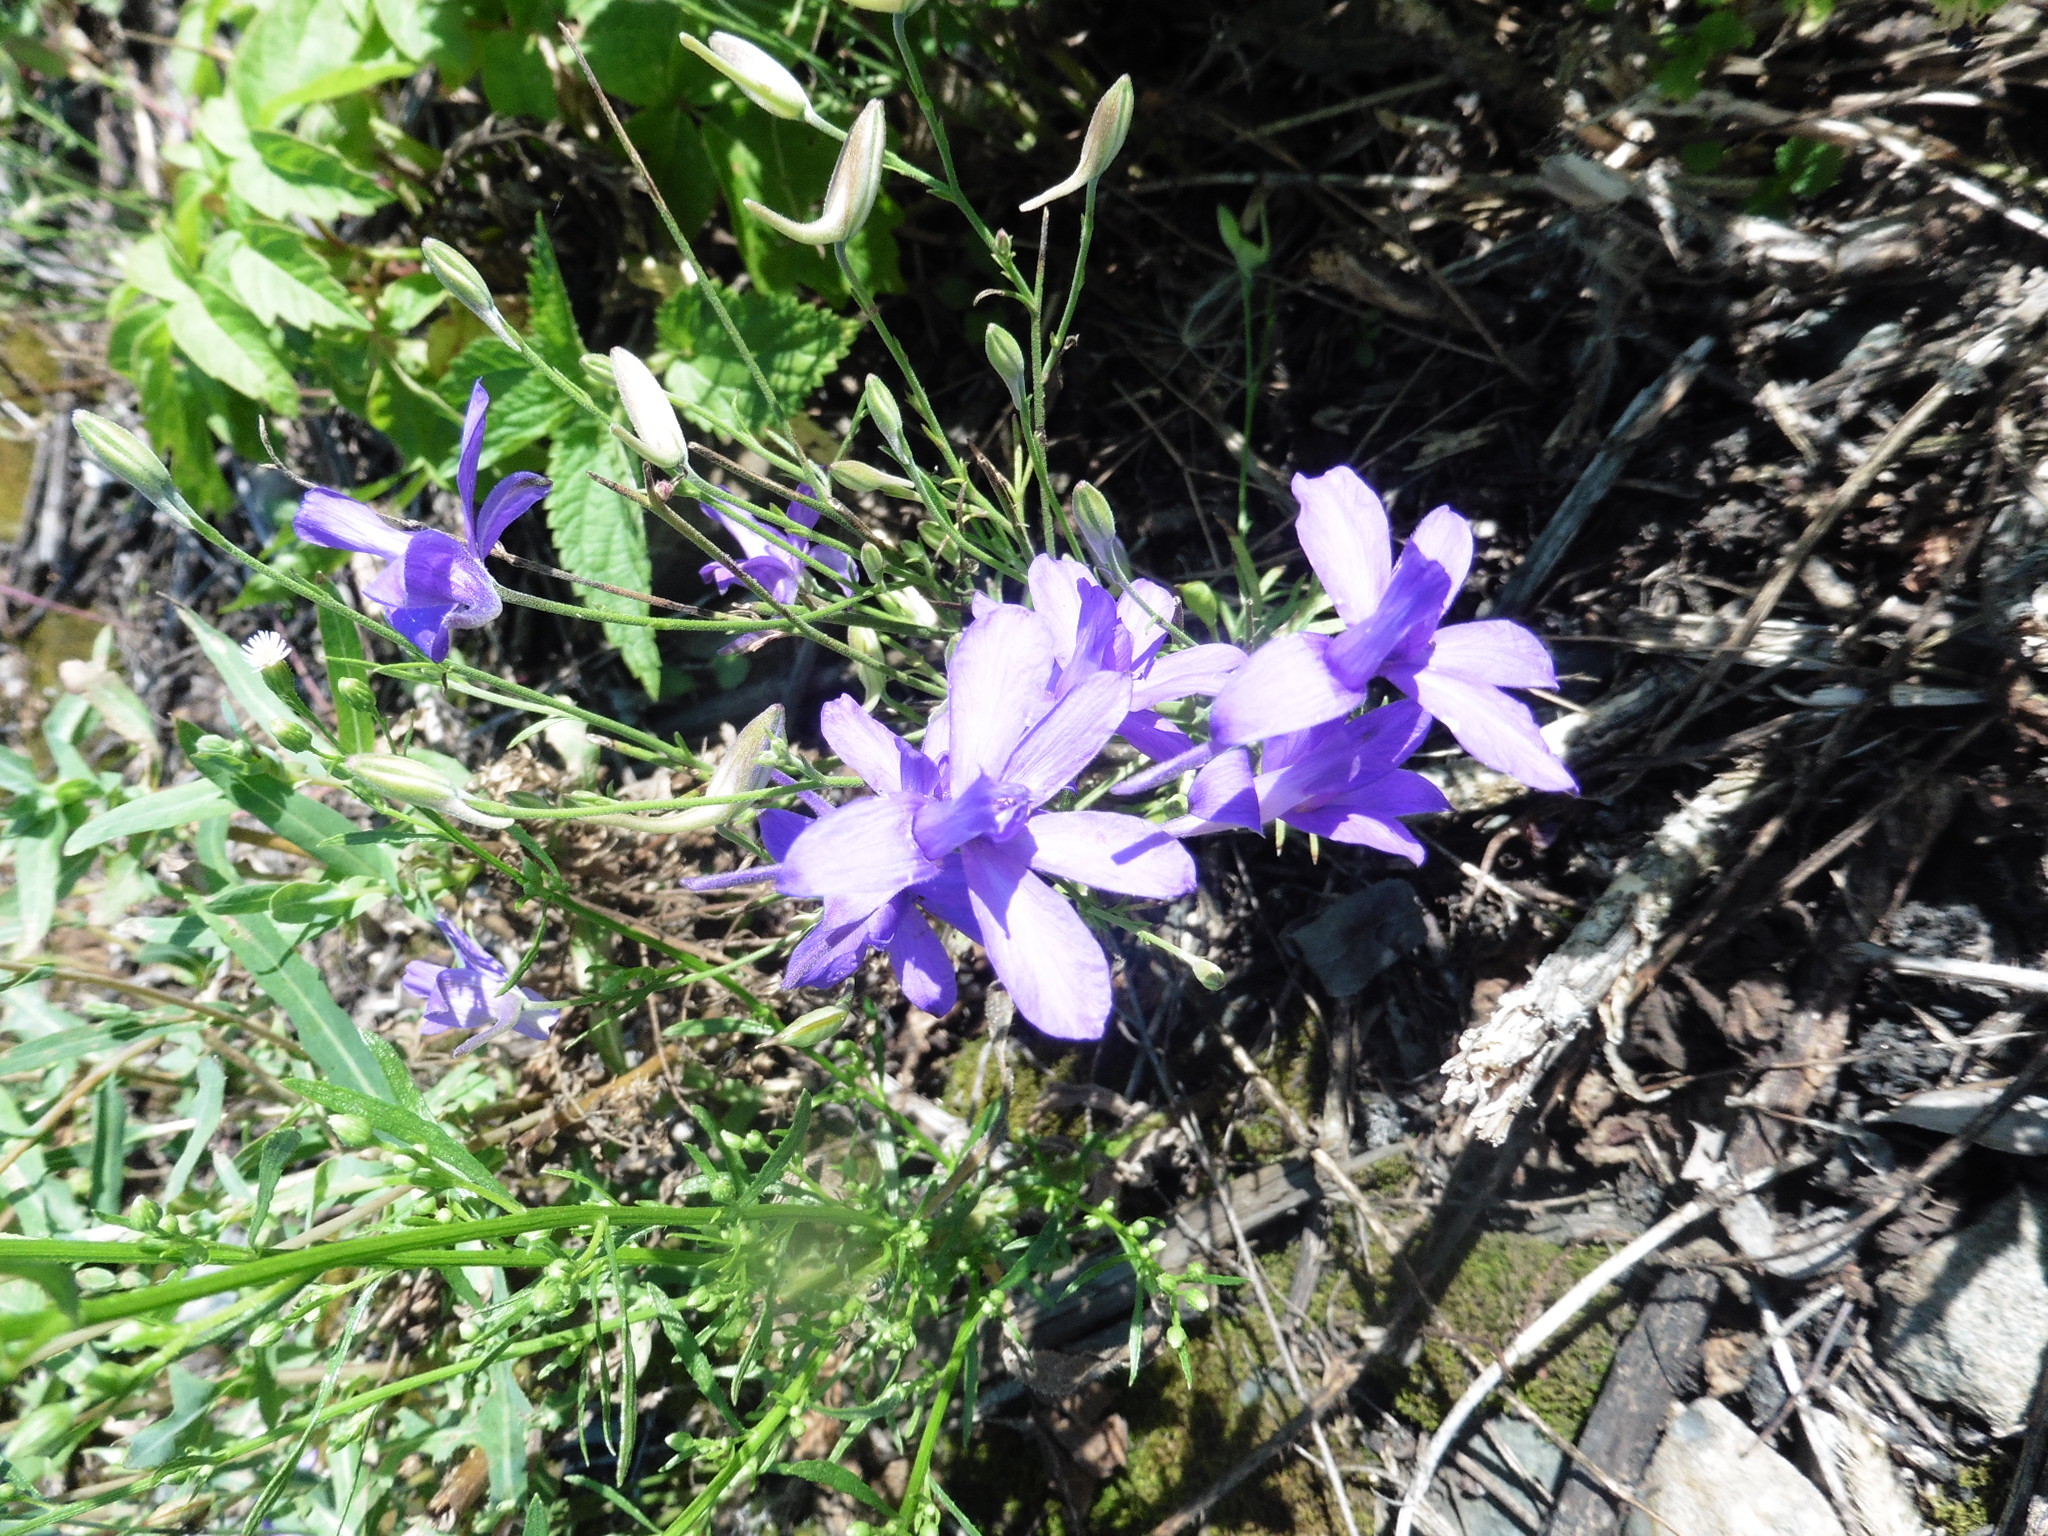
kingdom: Plantae
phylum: Tracheophyta
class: Magnoliopsida
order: Ranunculales
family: Ranunculaceae
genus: Delphinium
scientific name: Delphinium consolida
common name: Branching larkspur
